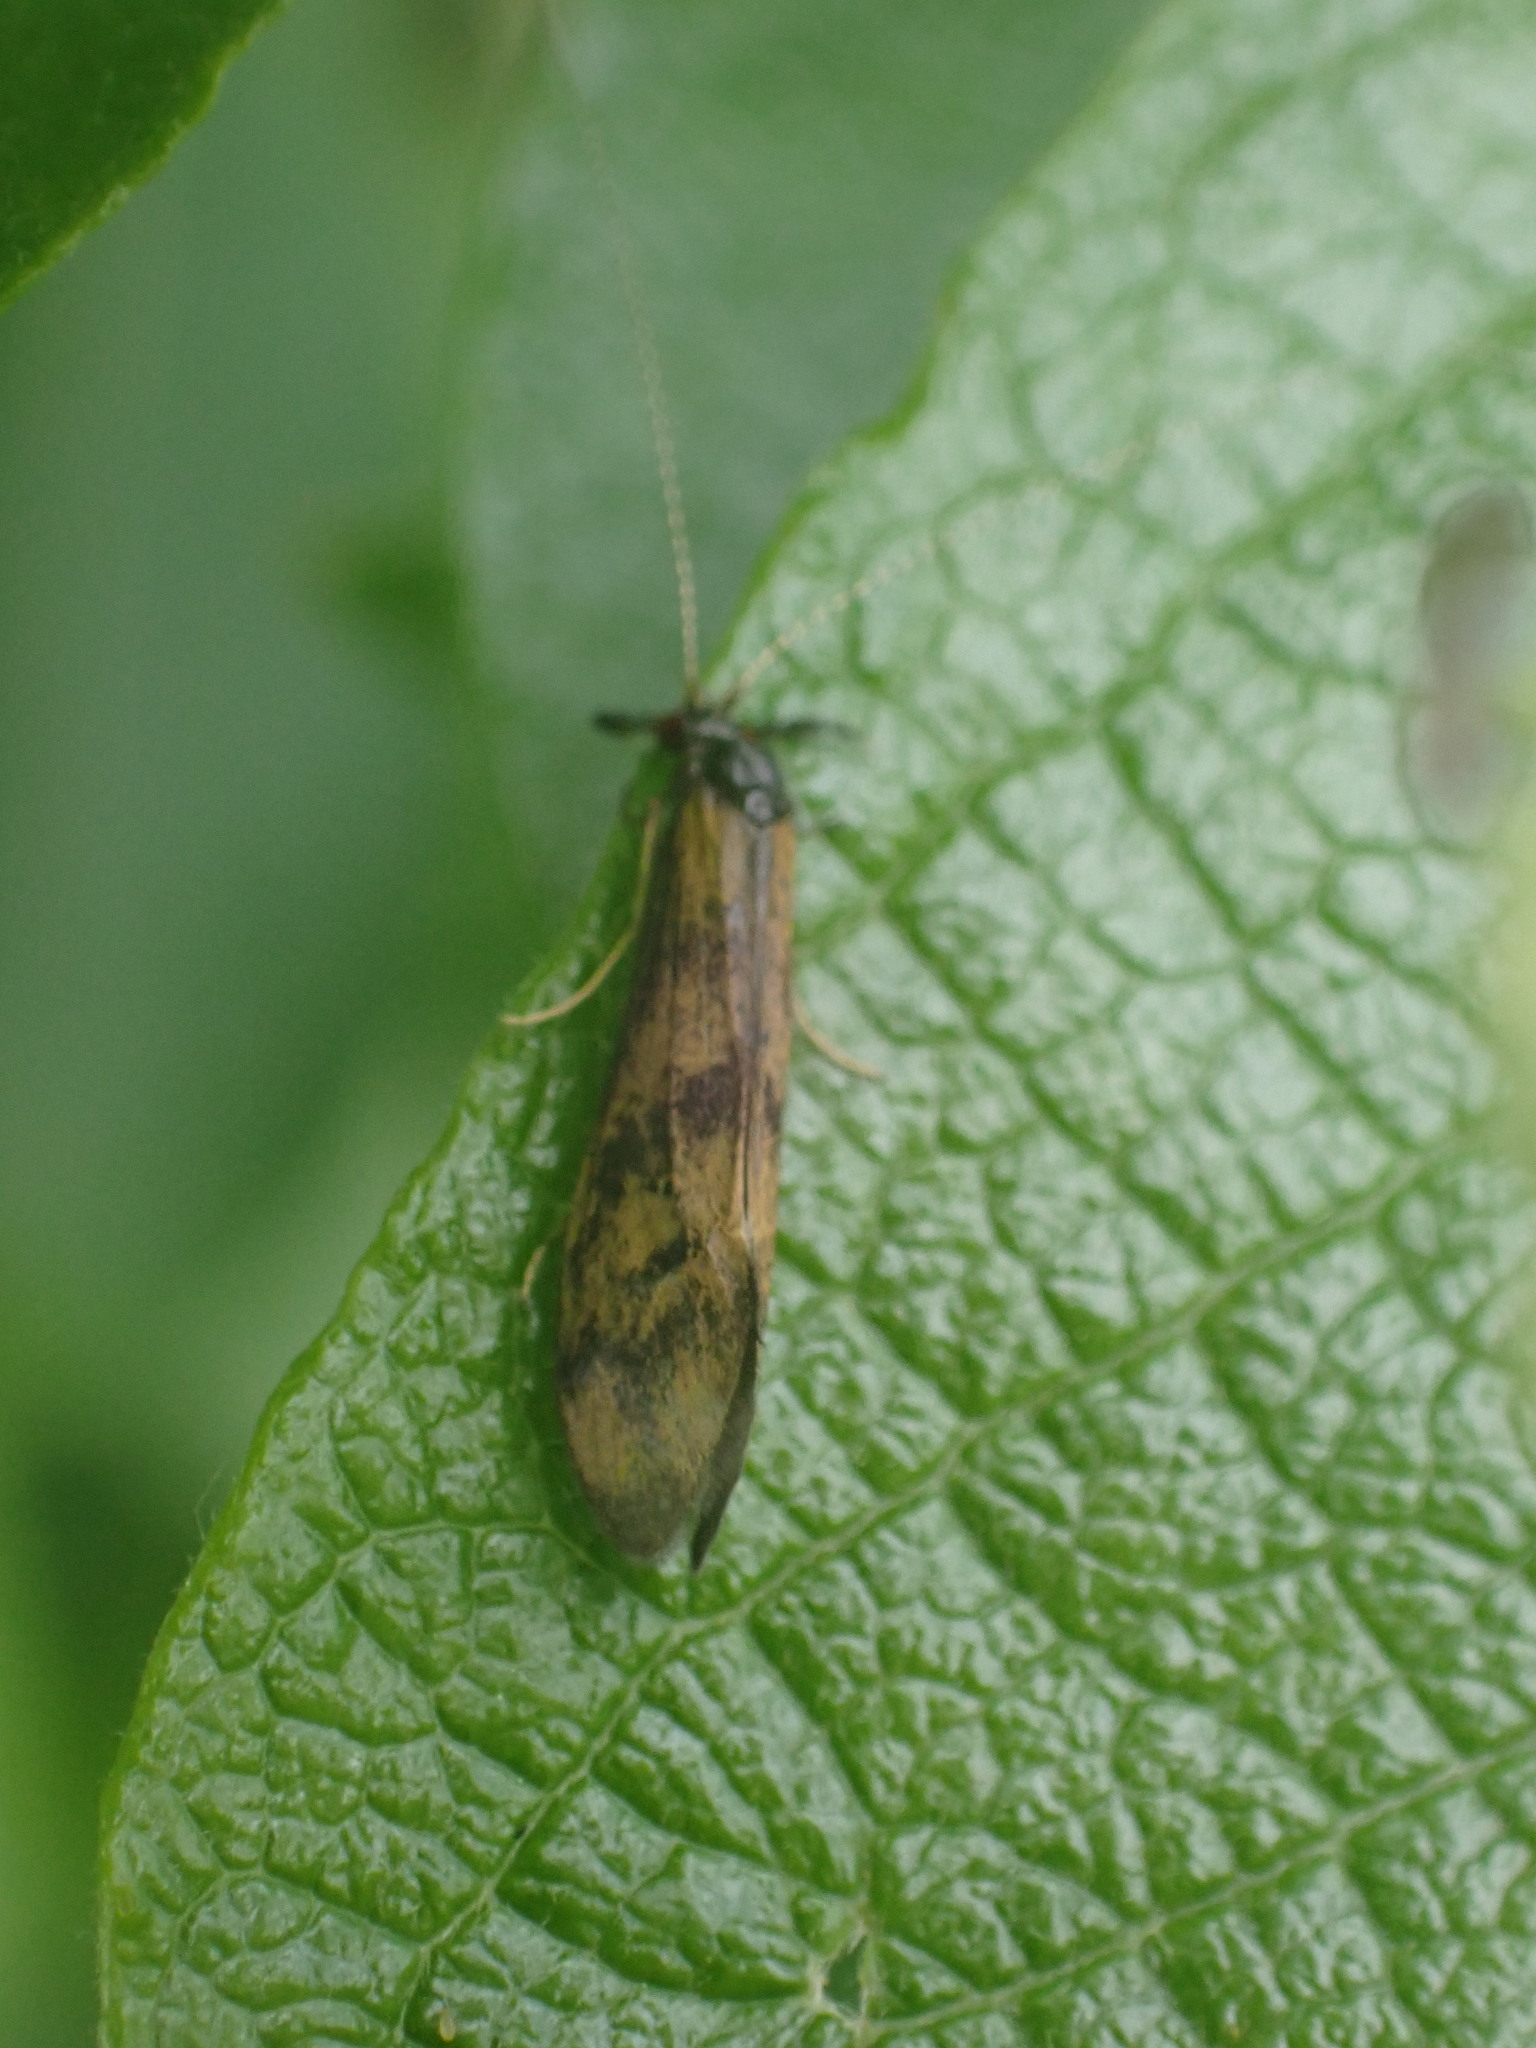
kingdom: Animalia
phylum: Arthropoda
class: Insecta
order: Trichoptera
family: Leptoceridae
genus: Mystacides
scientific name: Mystacides longicornis
